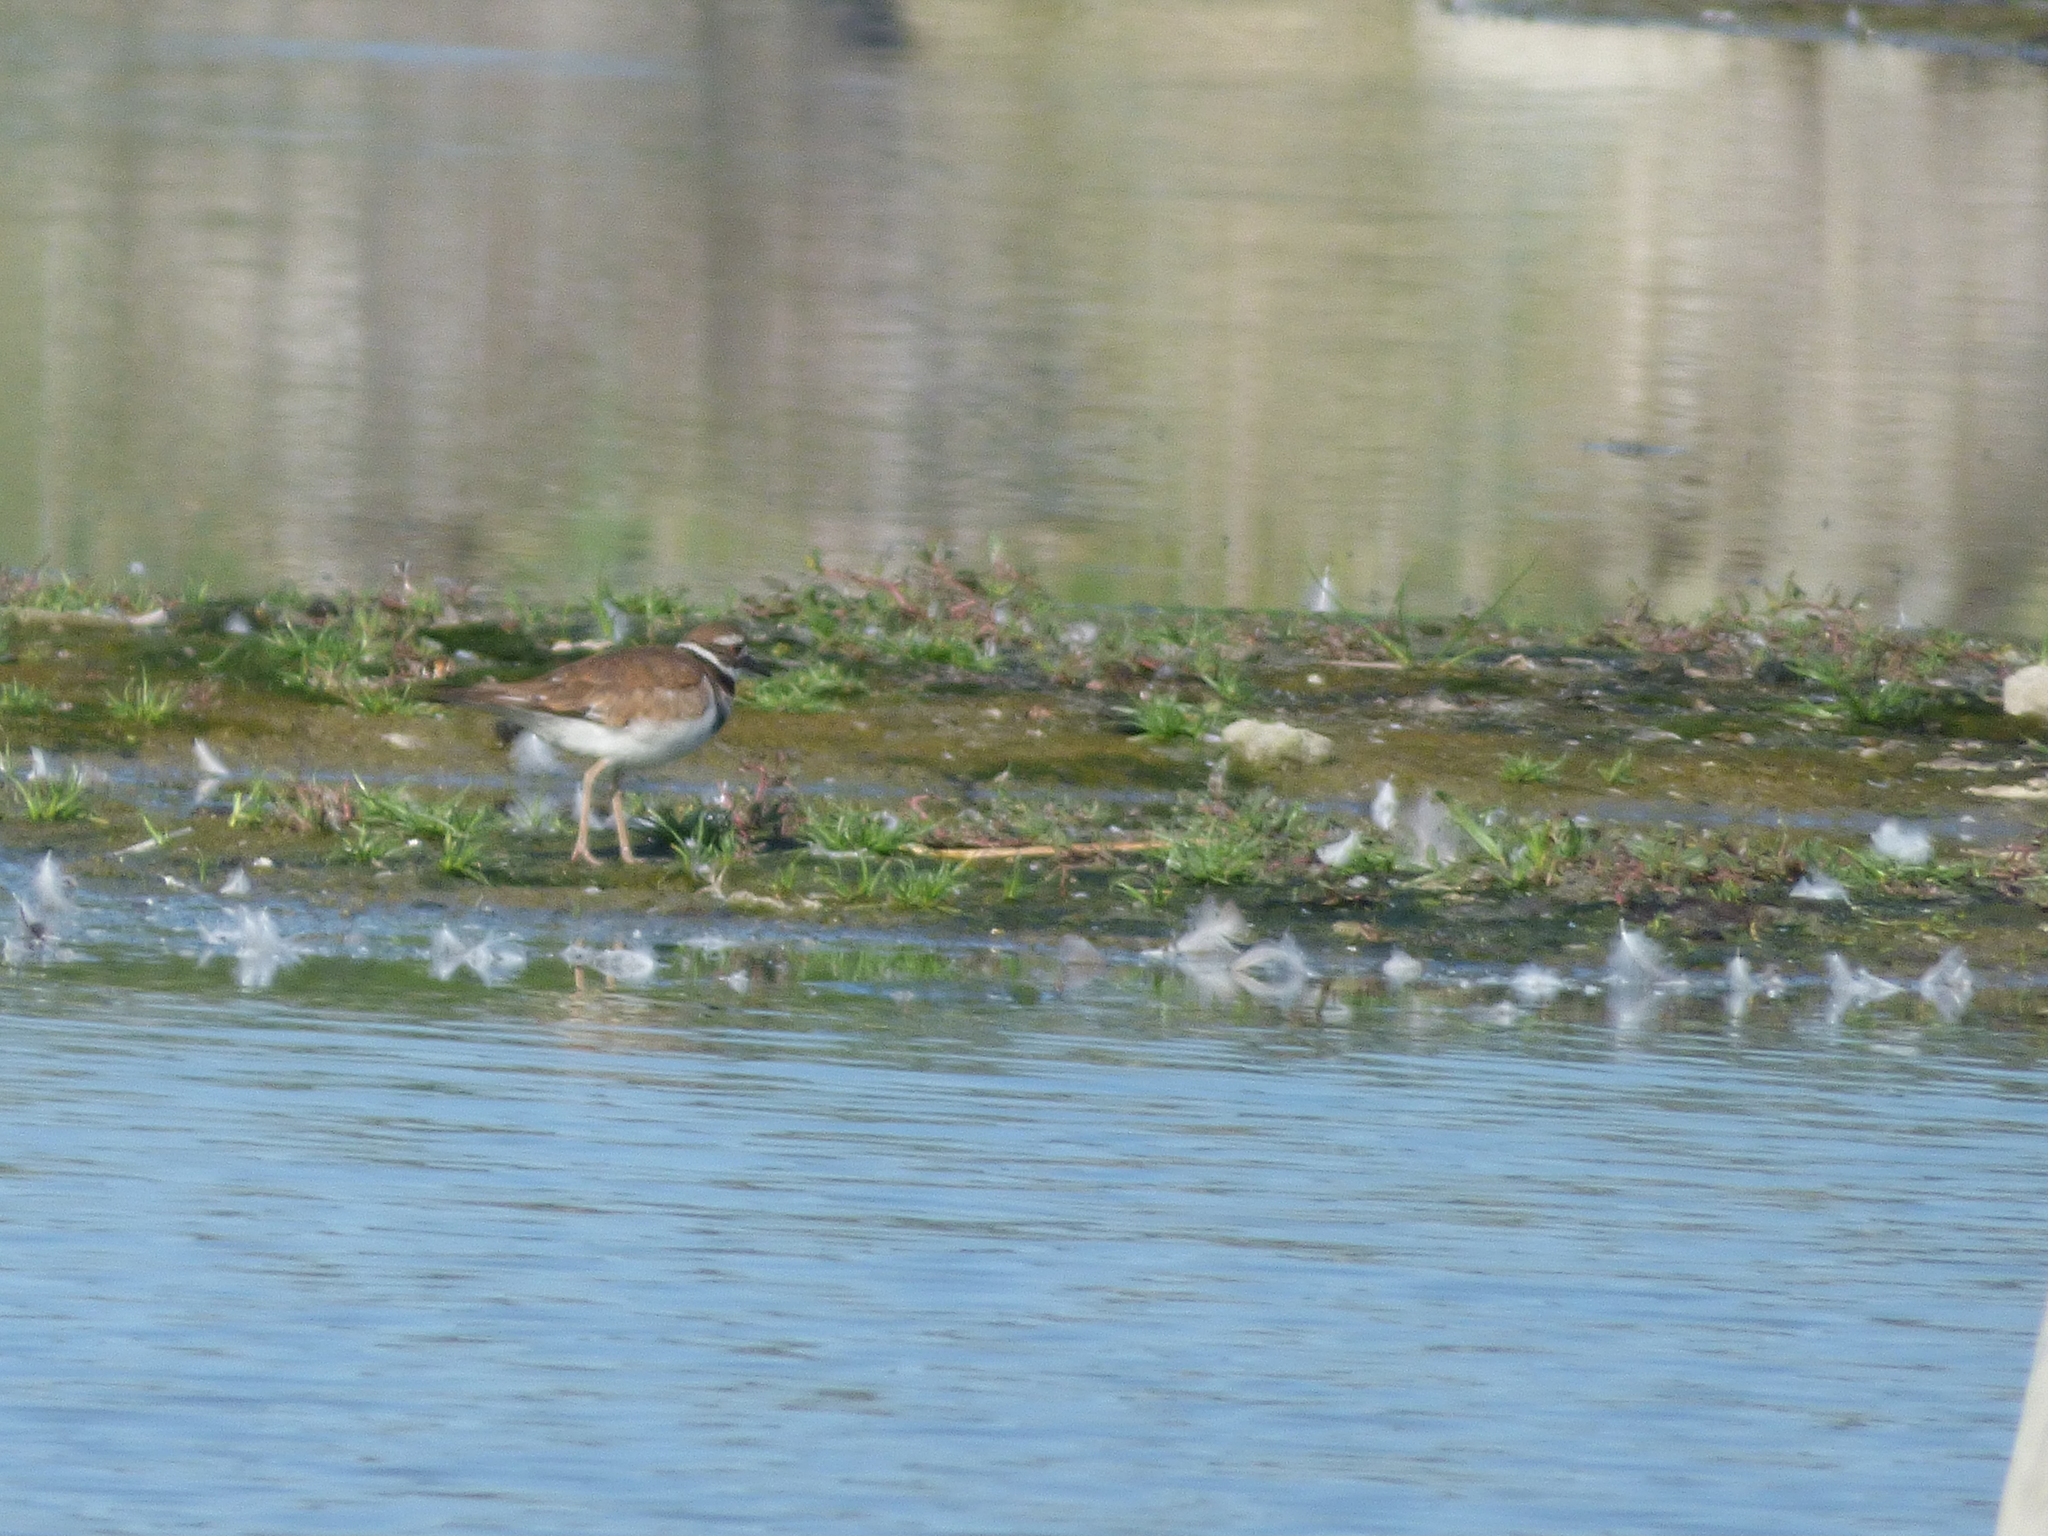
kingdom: Animalia
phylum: Chordata
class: Aves
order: Charadriiformes
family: Charadriidae
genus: Charadrius
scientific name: Charadrius vociferus
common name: Killdeer
